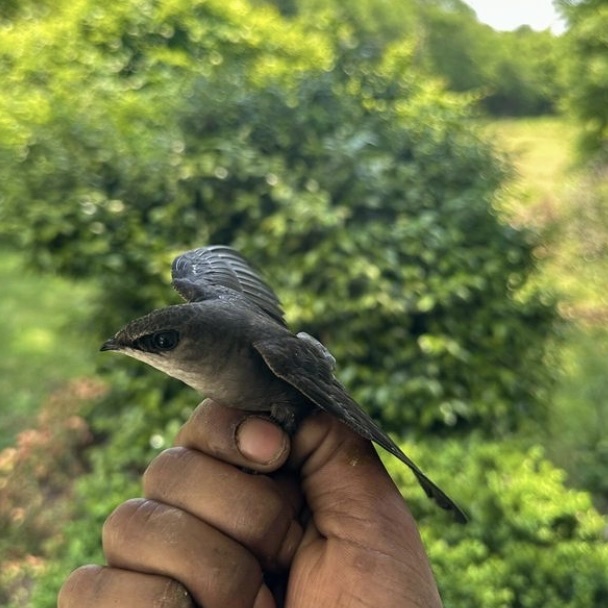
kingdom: Animalia
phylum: Chordata
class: Aves
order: Apodiformes
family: Apodidae
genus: Chaetura
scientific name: Chaetura pelagica
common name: Chimney swift
